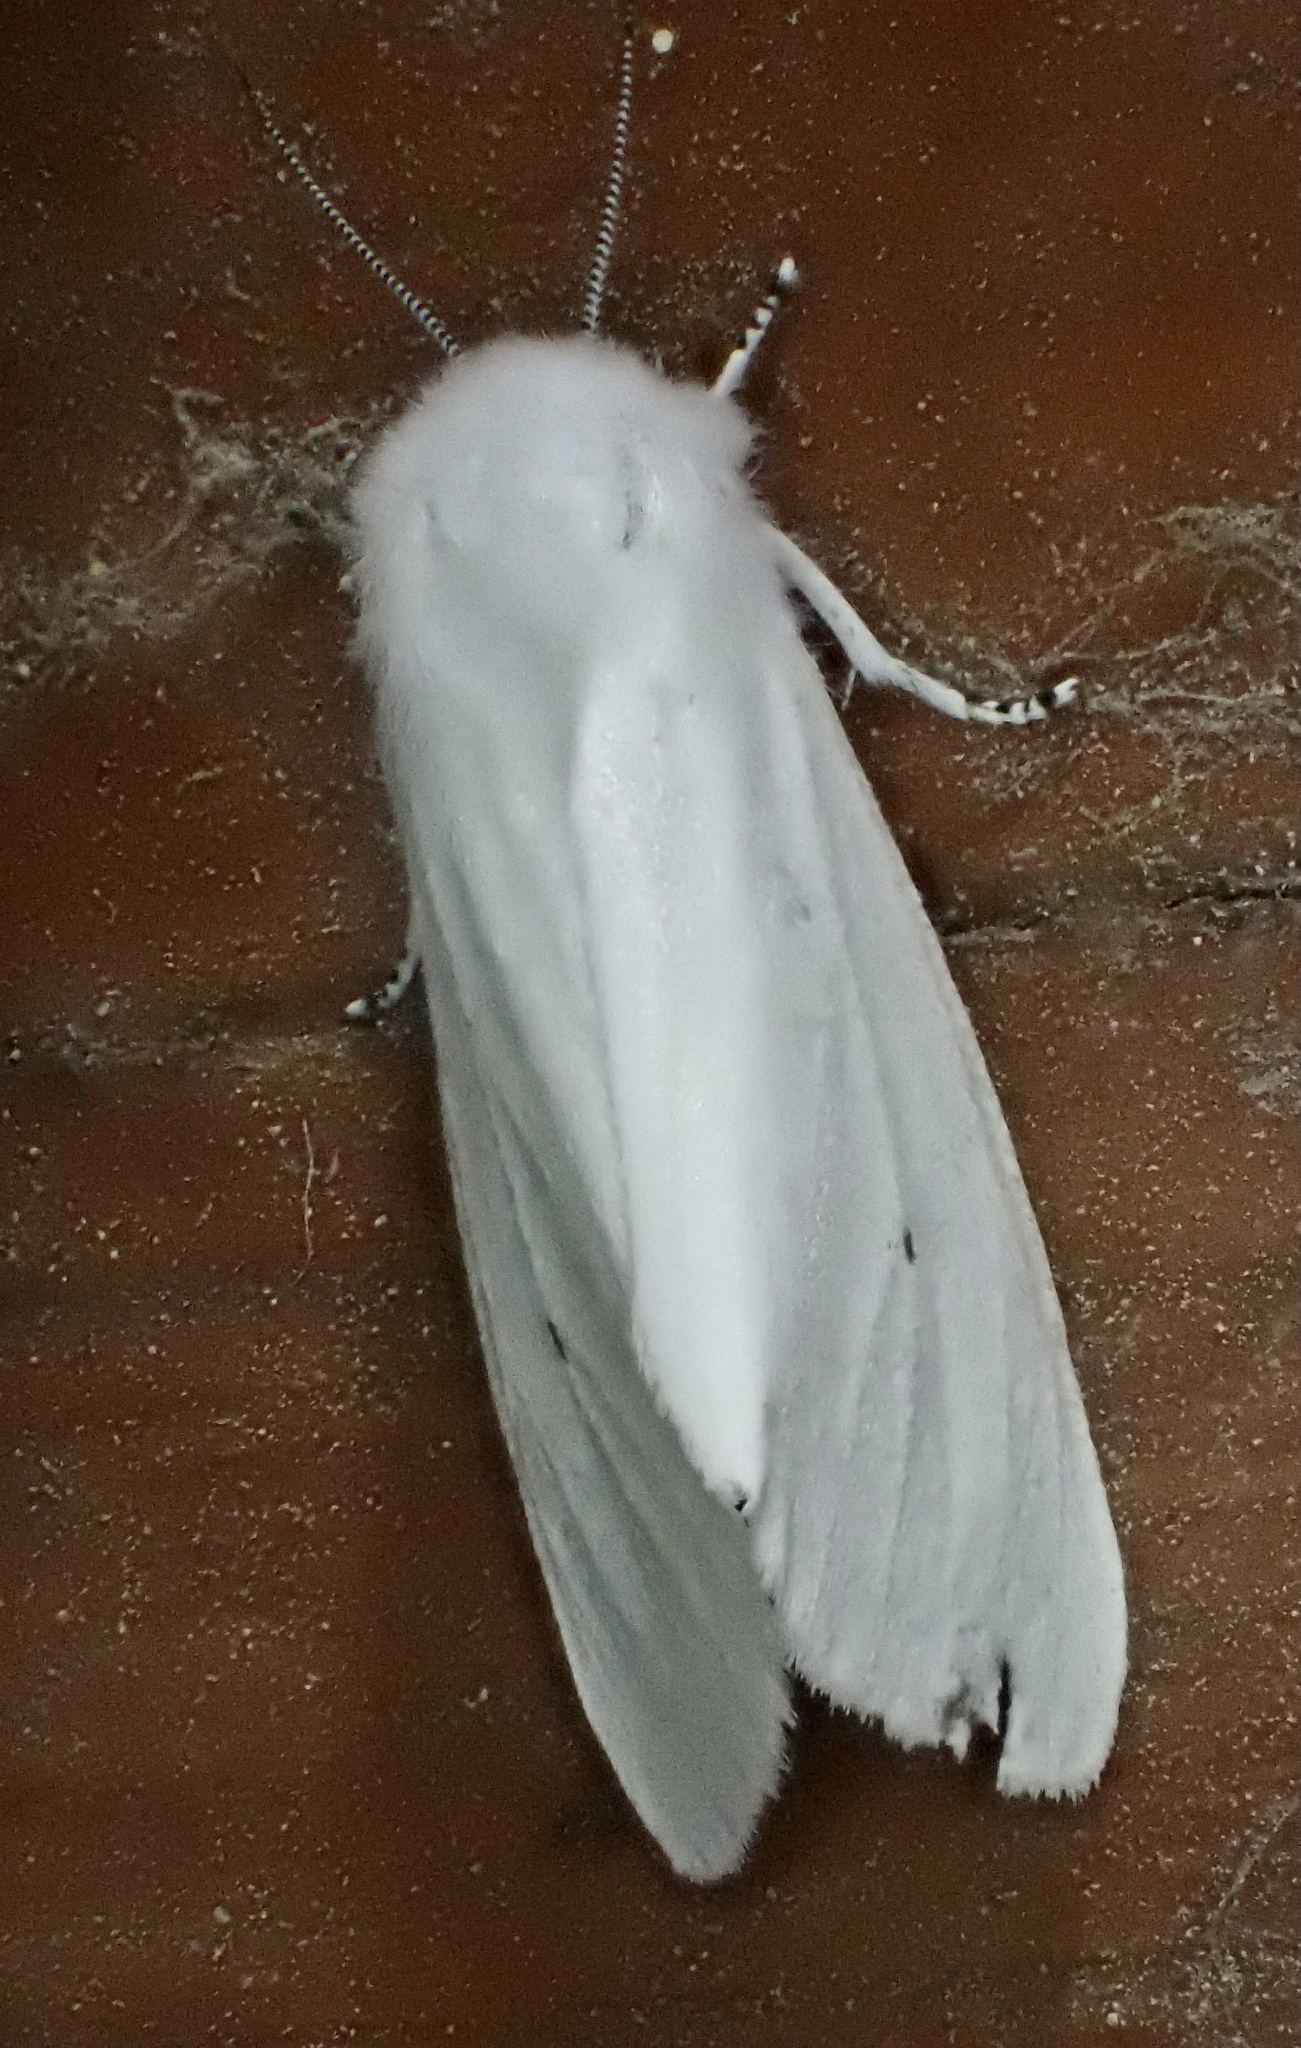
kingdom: Animalia
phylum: Arthropoda
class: Insecta
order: Lepidoptera
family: Erebidae
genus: Spilosoma
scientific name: Spilosoma virginica
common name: Virginia tiger moth
